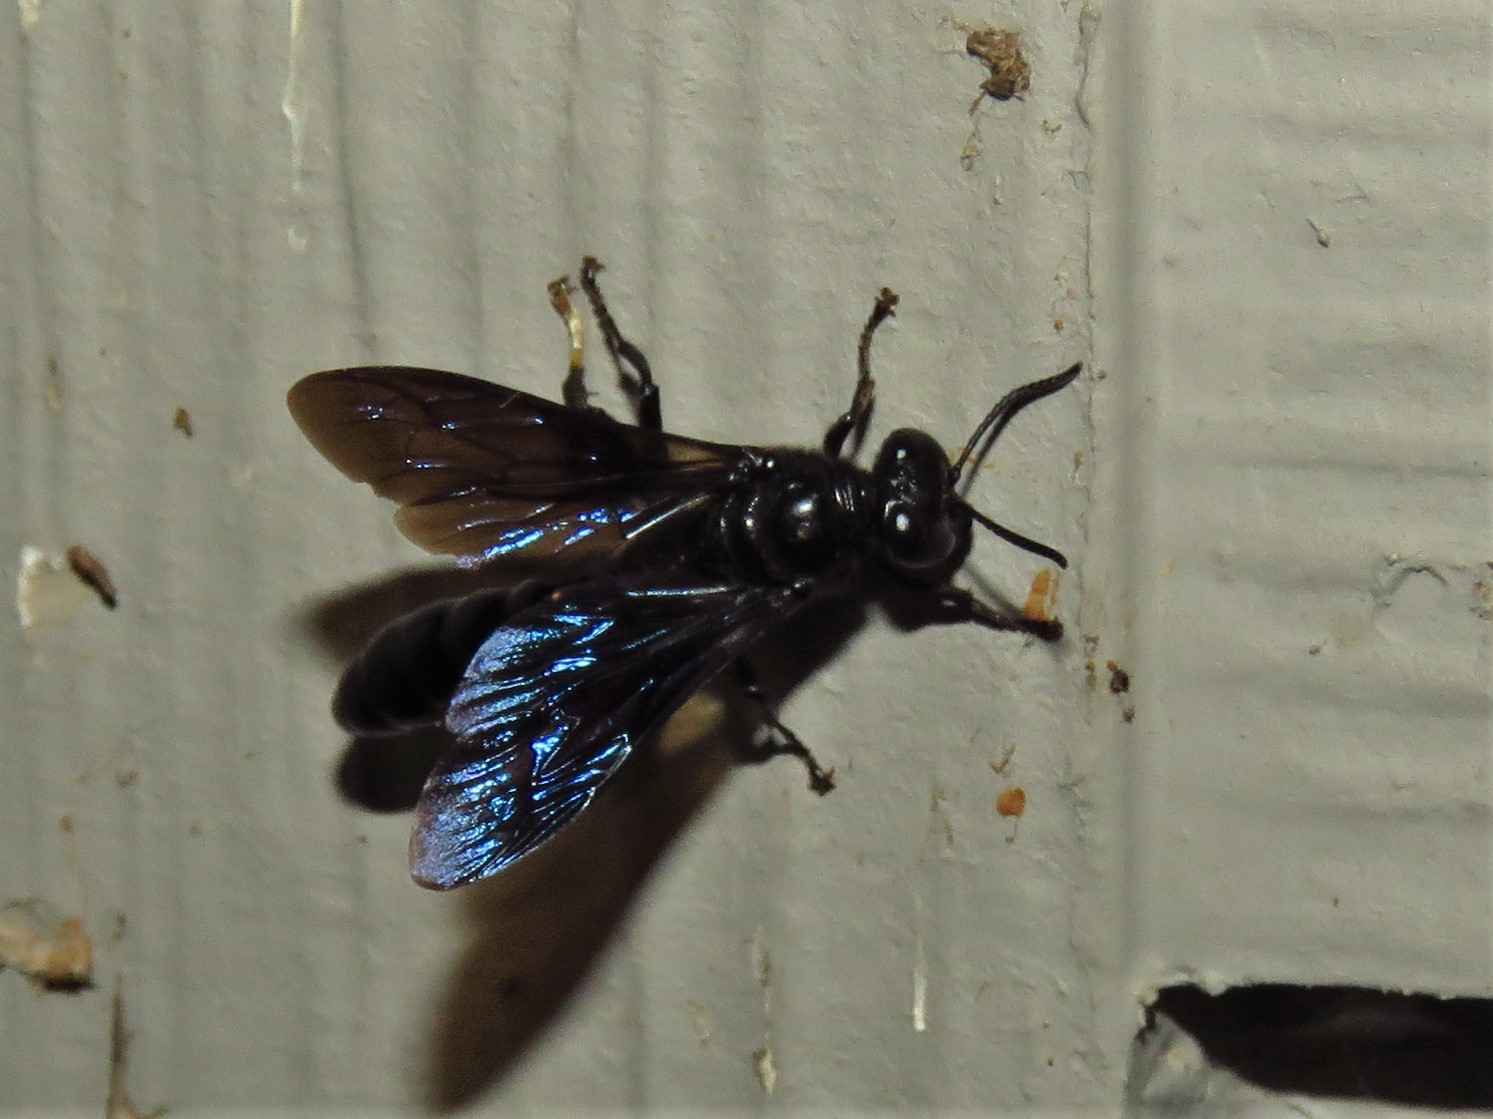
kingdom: Animalia
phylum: Arthropoda
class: Insecta
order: Hymenoptera
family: Crabronidae
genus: Trypoxylon
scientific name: Trypoxylon politum
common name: Organ-pipe mud-dauber wasp
